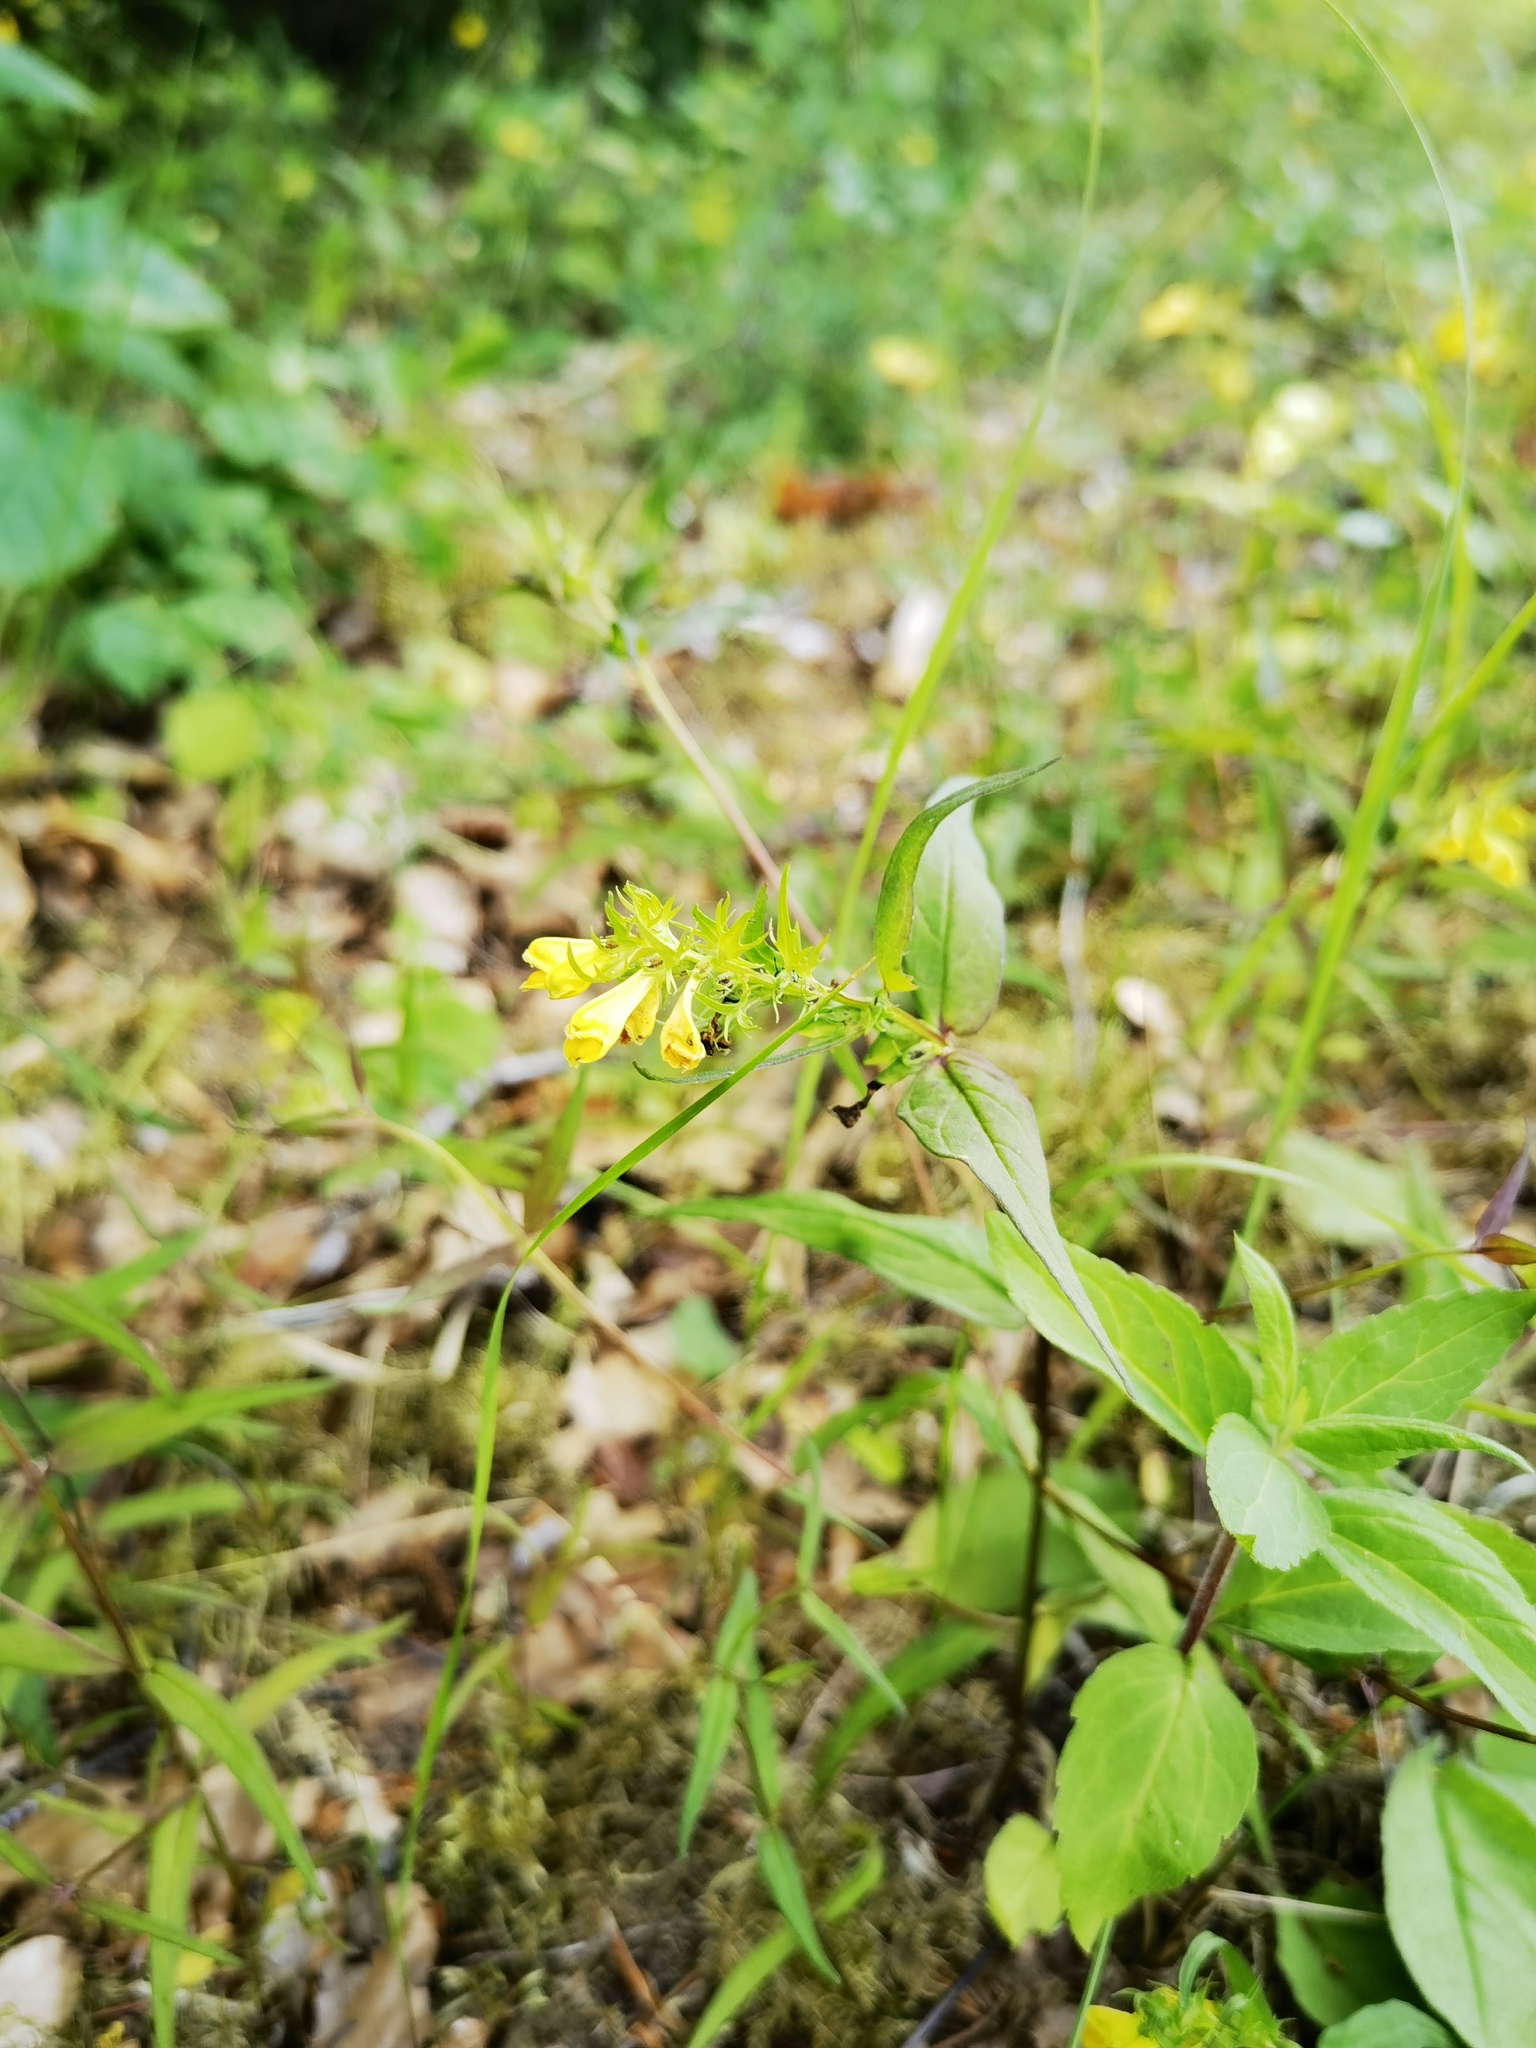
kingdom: Plantae
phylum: Tracheophyta
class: Magnoliopsida
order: Lamiales
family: Orobanchaceae
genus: Melampyrum
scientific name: Melampyrum pratense
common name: Common cow-wheat
